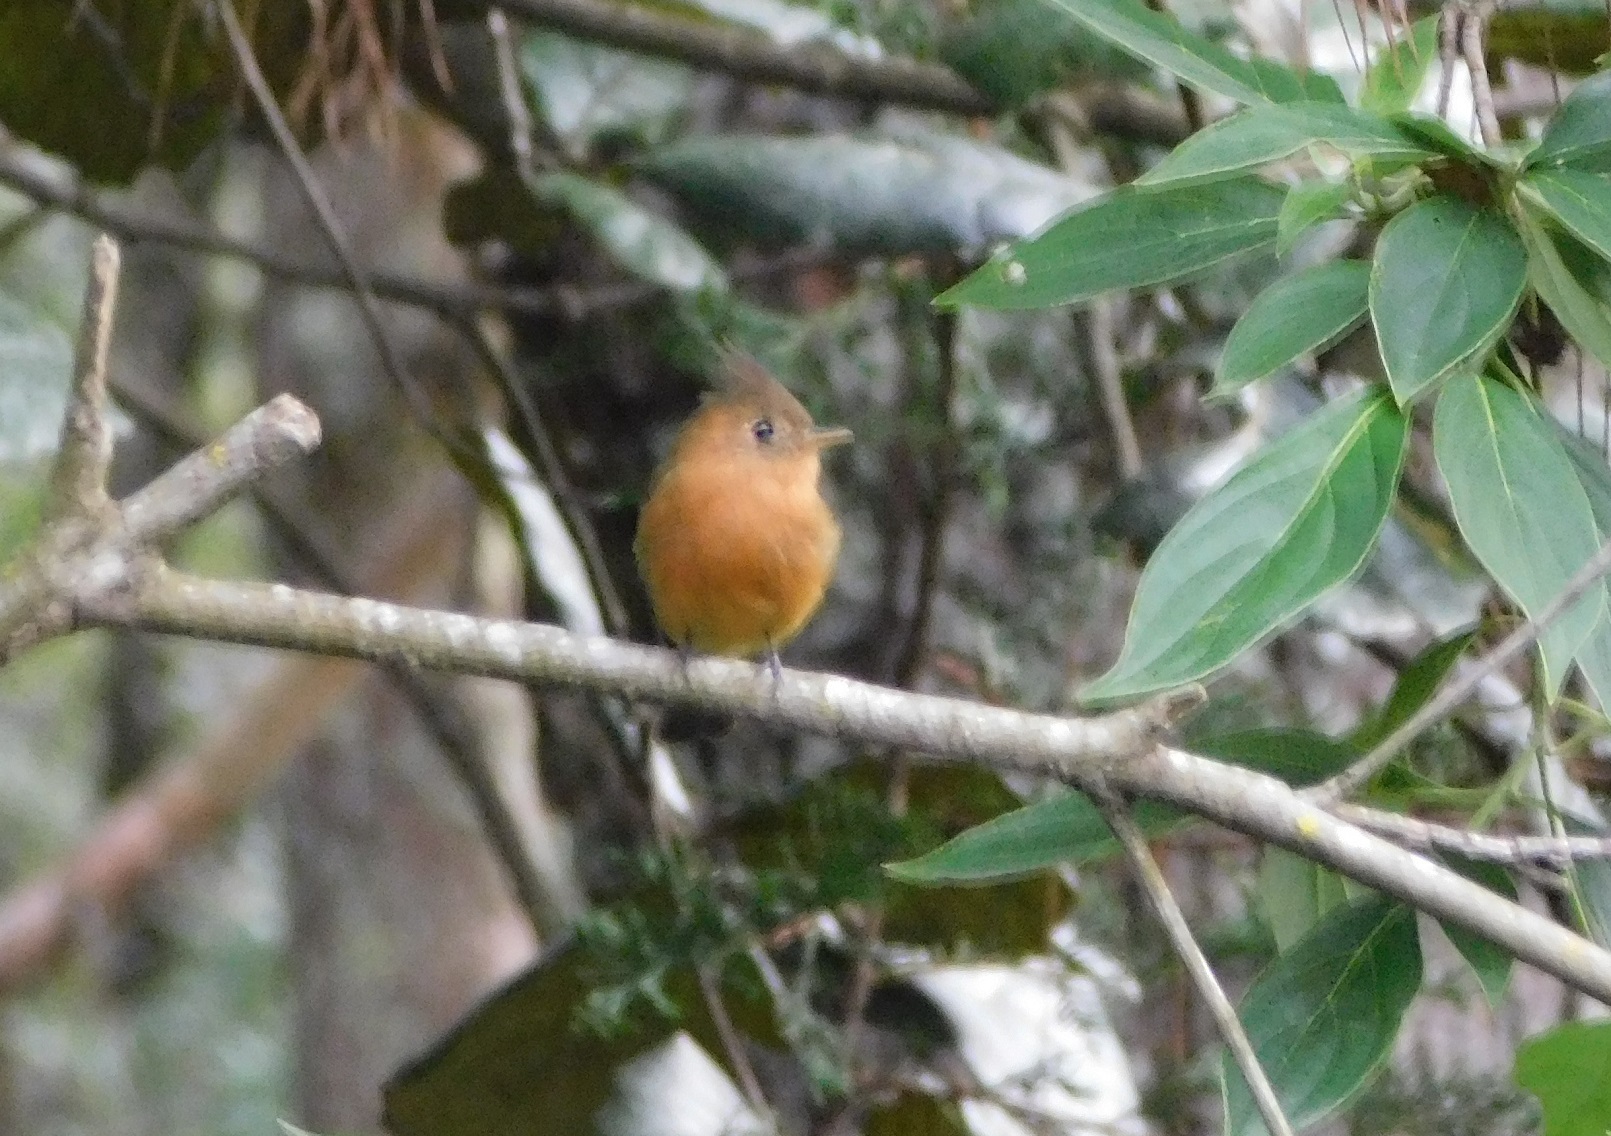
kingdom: Animalia
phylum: Chordata
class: Aves
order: Passeriformes
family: Tyrannidae
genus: Mitrephanes
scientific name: Mitrephanes phaeocercus
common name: Northern tufted flycatcher
